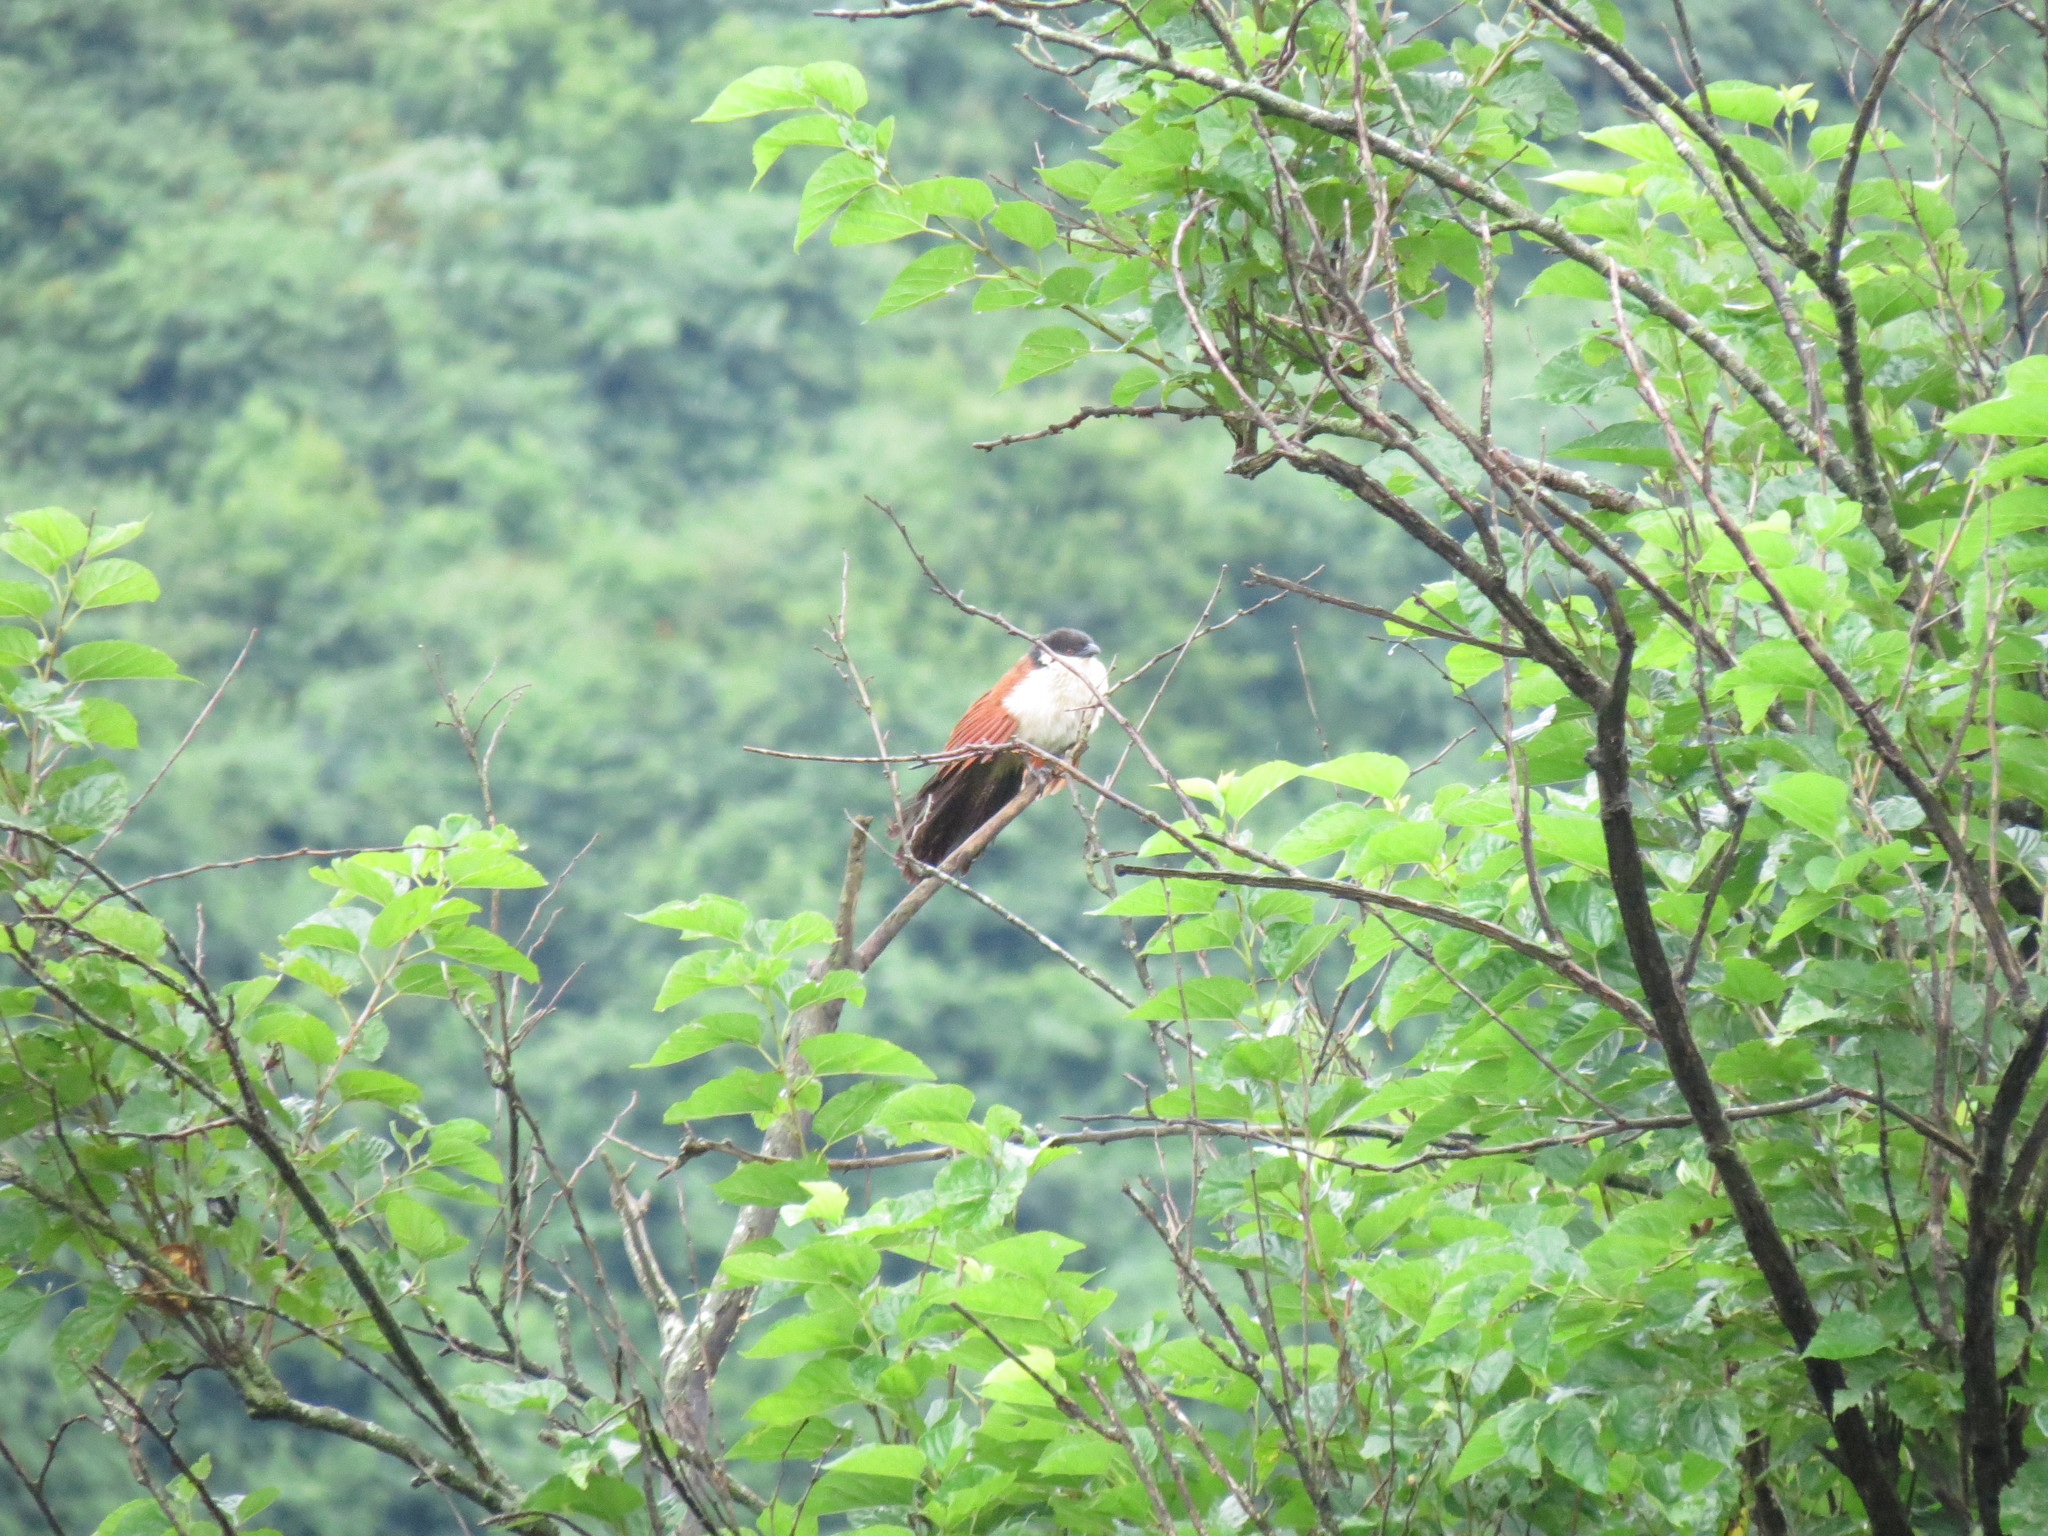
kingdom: Animalia
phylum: Chordata
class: Aves
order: Cuculiformes
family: Cuculidae
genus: Centropus
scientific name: Centropus superciliosus
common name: White-browed coucal
